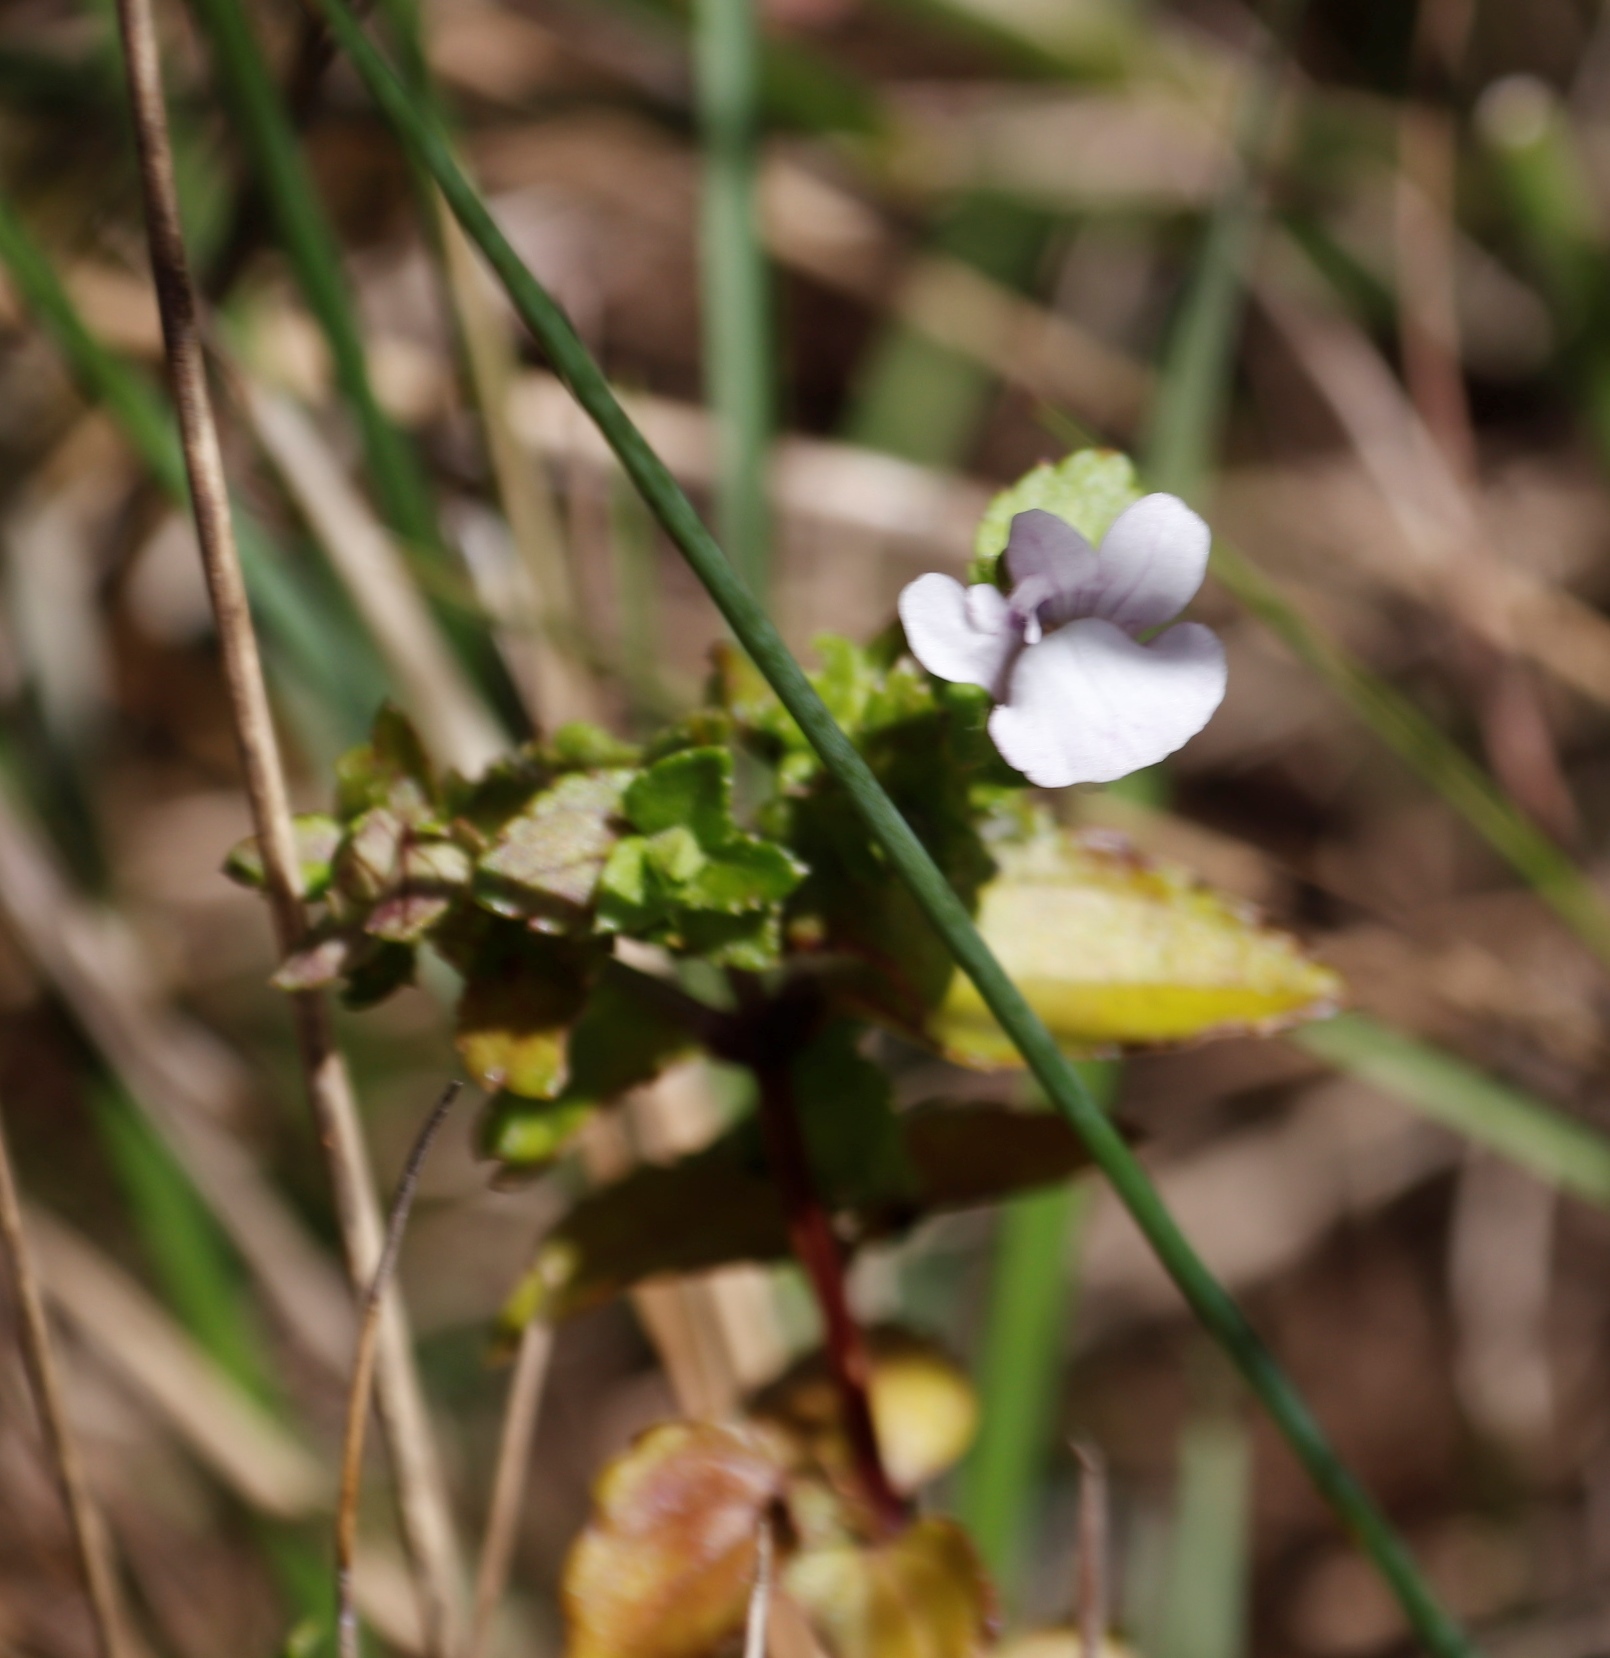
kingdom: Plantae
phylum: Tracheophyta
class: Magnoliopsida
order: Lamiales
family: Scrophulariaceae
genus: Nemesia
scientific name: Nemesia macrocarpa
